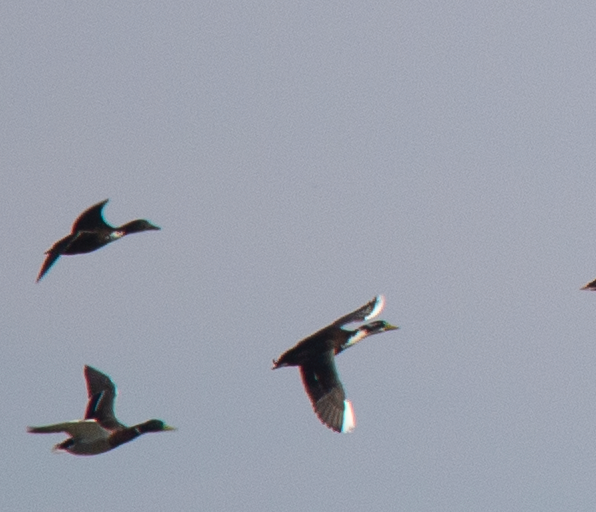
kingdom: Animalia
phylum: Chordata
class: Aves
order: Anseriformes
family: Anatidae
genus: Anas
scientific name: Anas platyrhynchos
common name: Mallard
